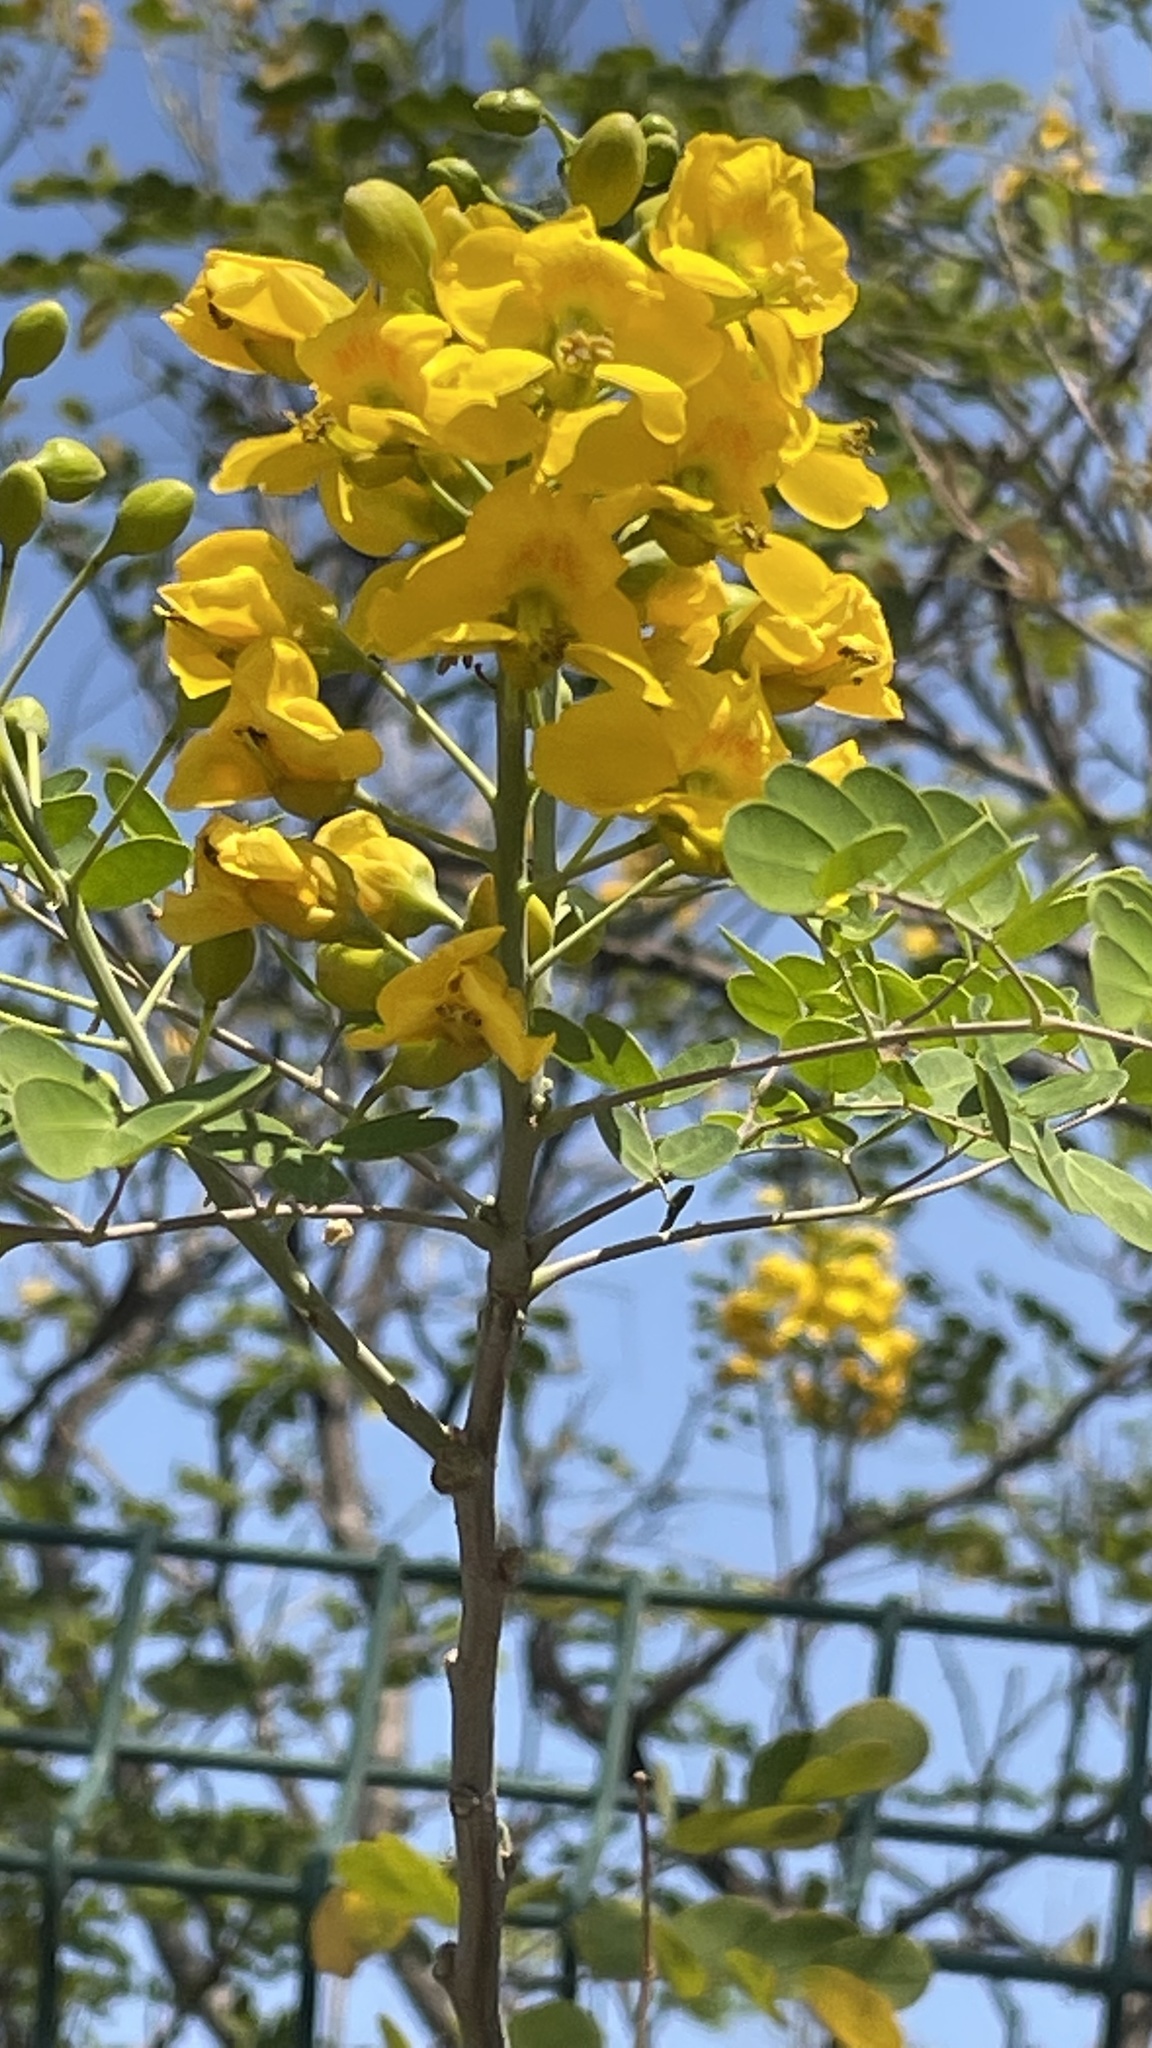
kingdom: Plantae
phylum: Tracheophyta
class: Magnoliopsida
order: Fabales
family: Fabaceae
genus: Erythrostemon
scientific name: Erythrostemon mexicanus
